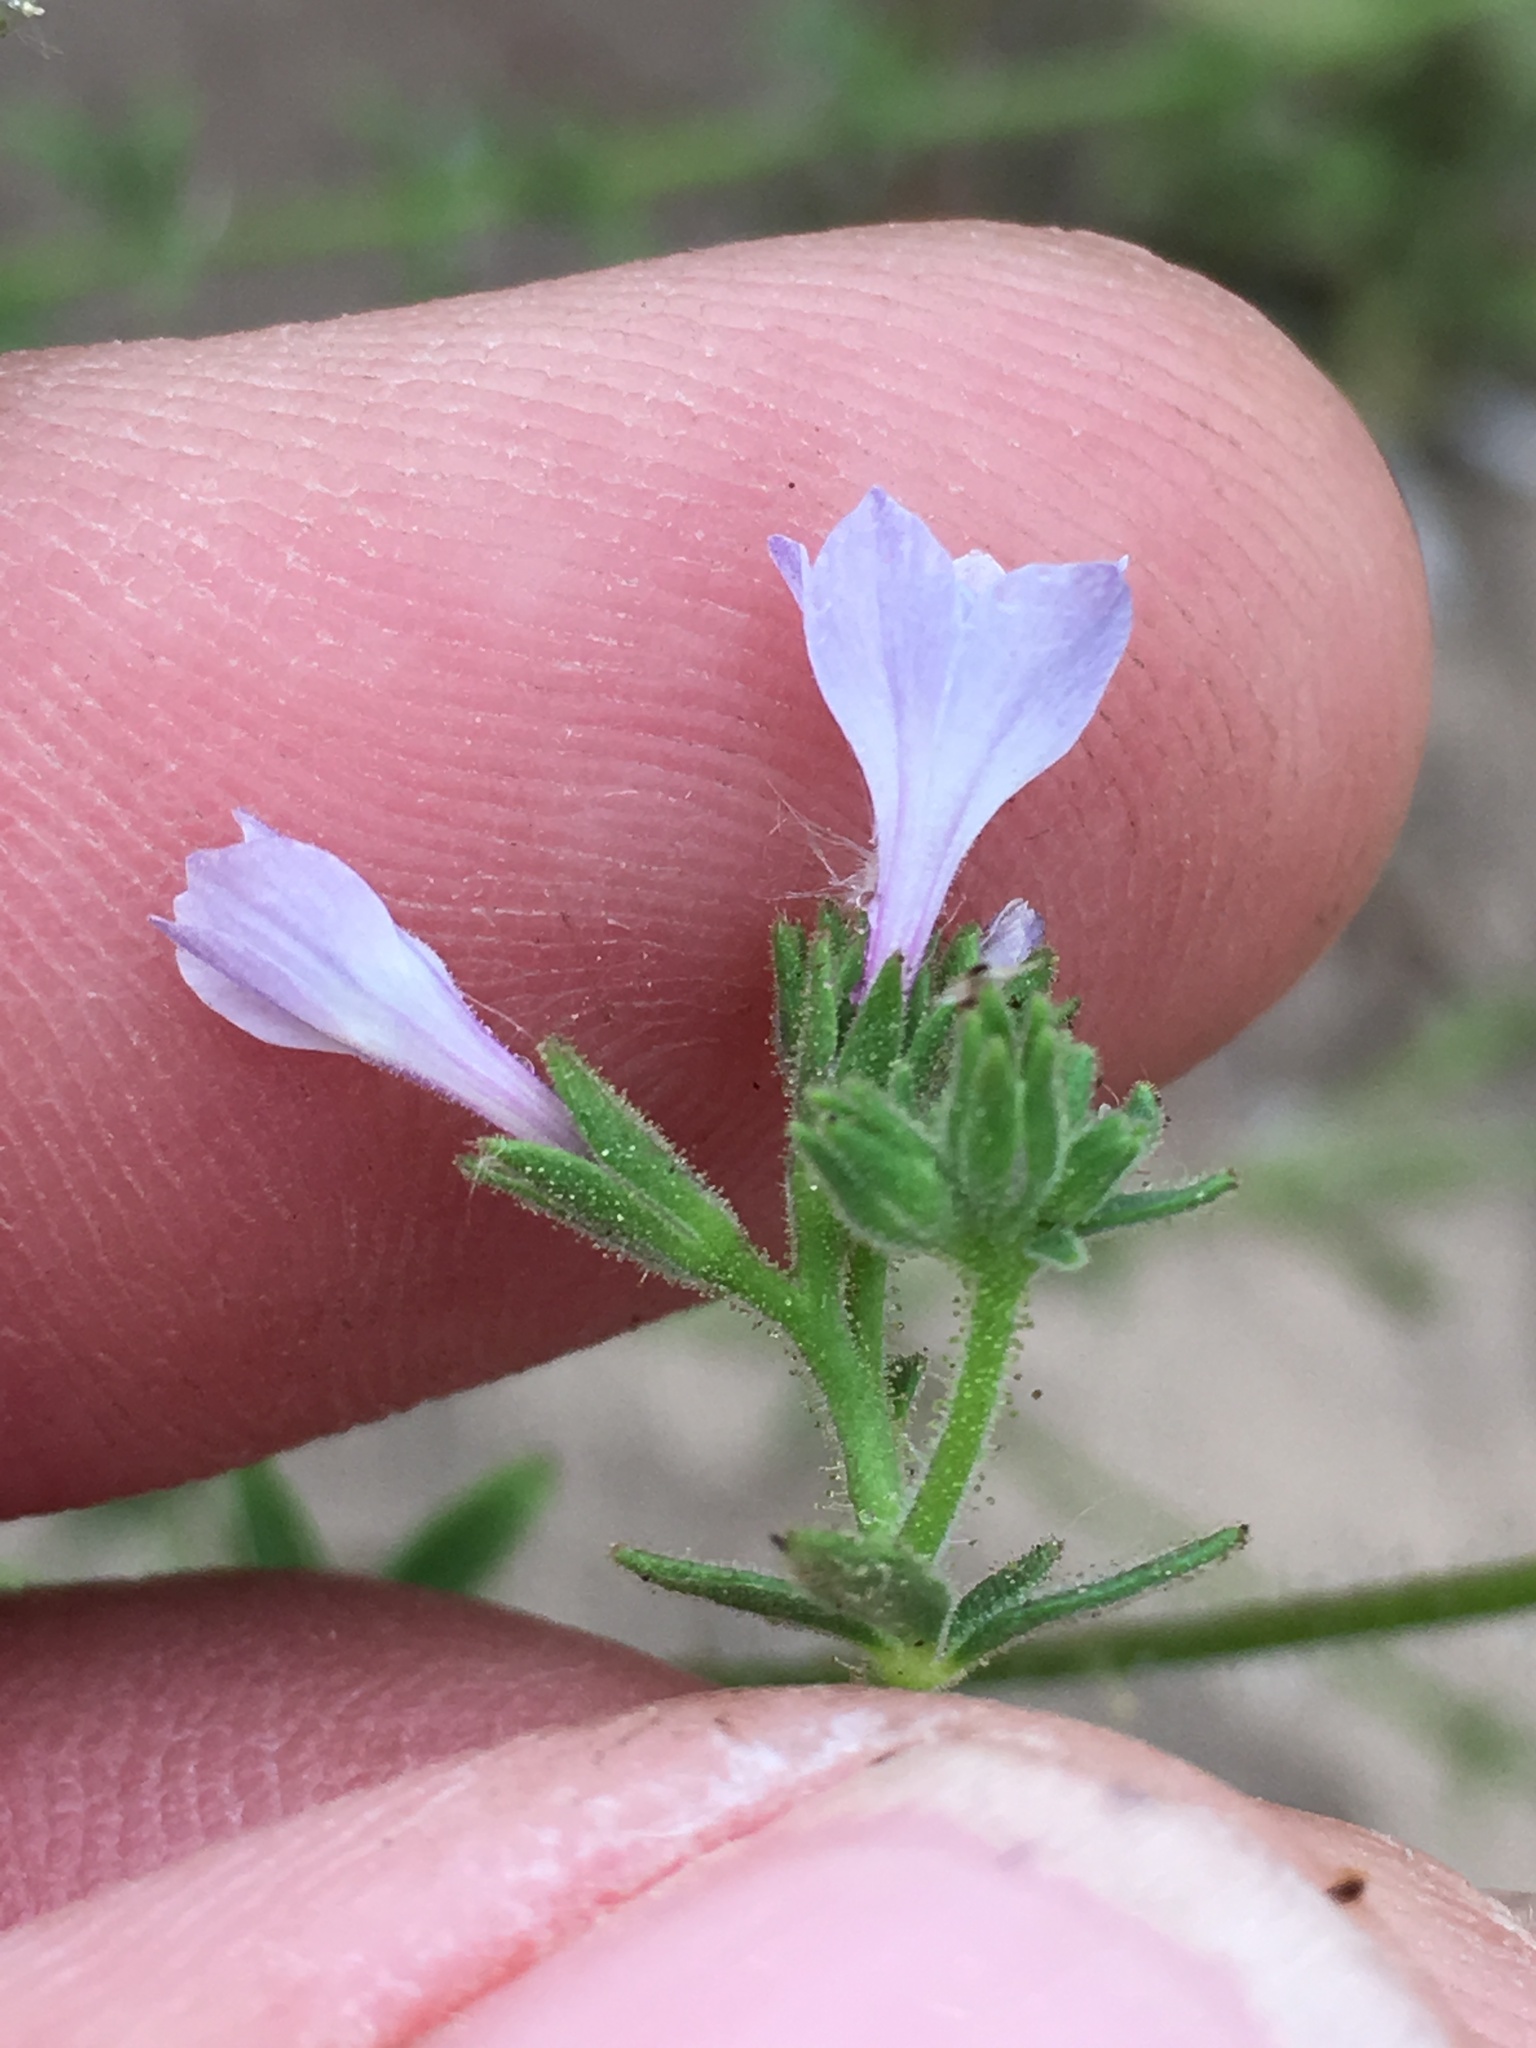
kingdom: Plantae
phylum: Tracheophyta
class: Magnoliopsida
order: Ericales
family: Polemoniaceae
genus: Allophyllum
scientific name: Allophyllum glutinosum
